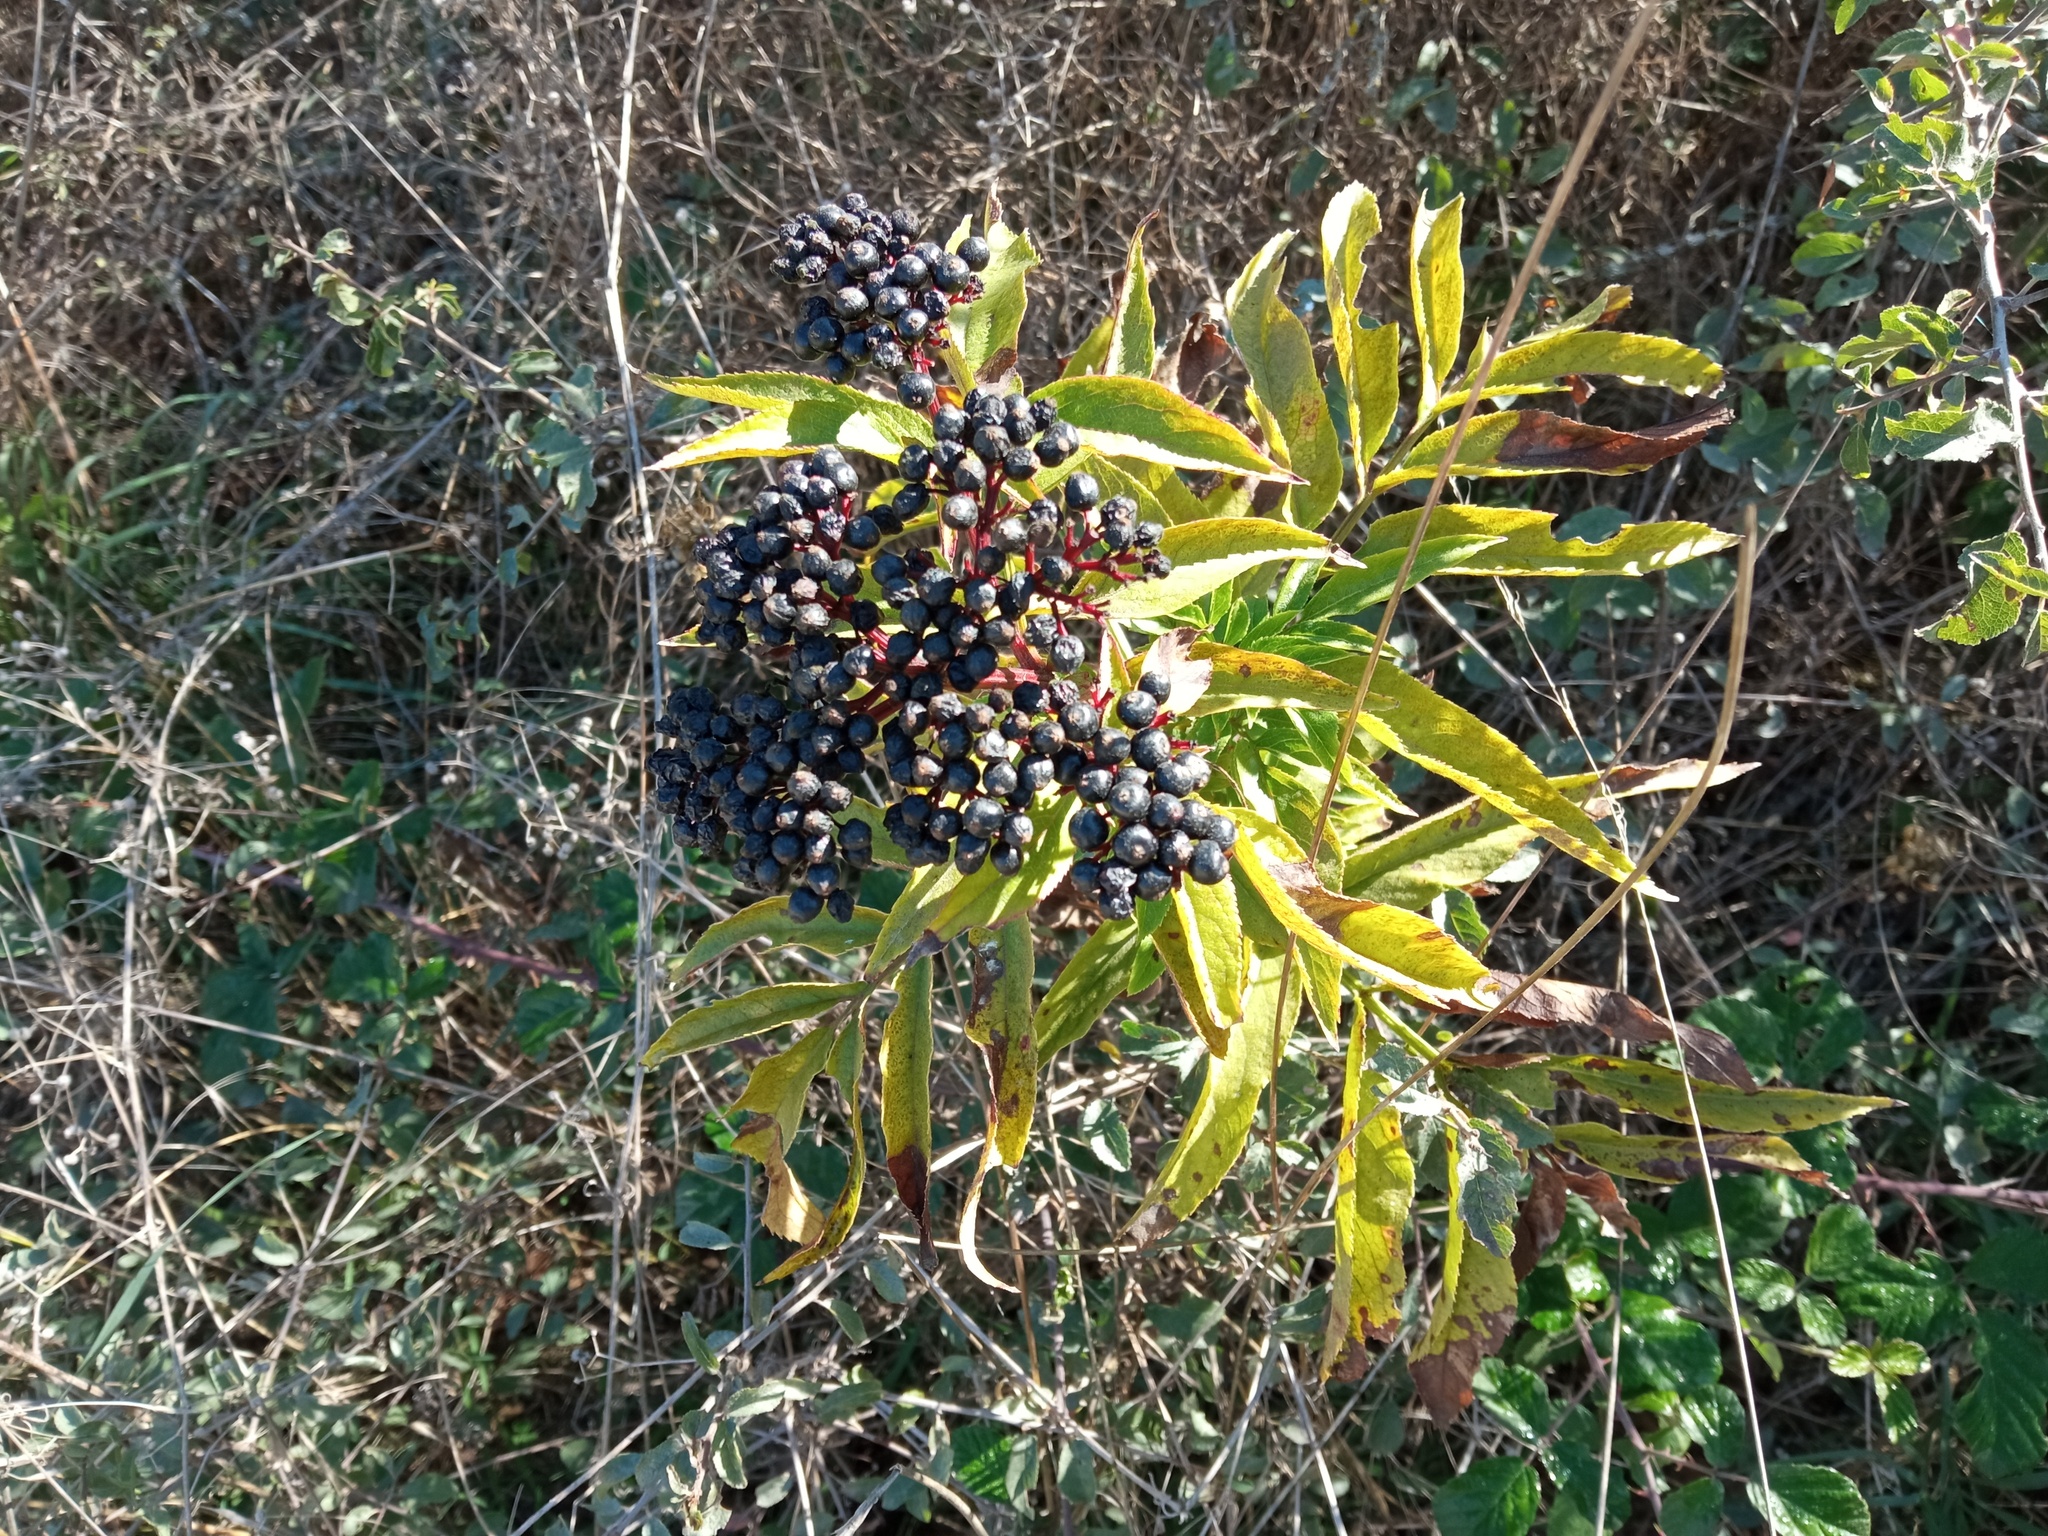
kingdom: Plantae
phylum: Tracheophyta
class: Magnoliopsida
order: Dipsacales
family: Viburnaceae
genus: Sambucus
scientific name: Sambucus ebulus
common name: Dwarf elder
